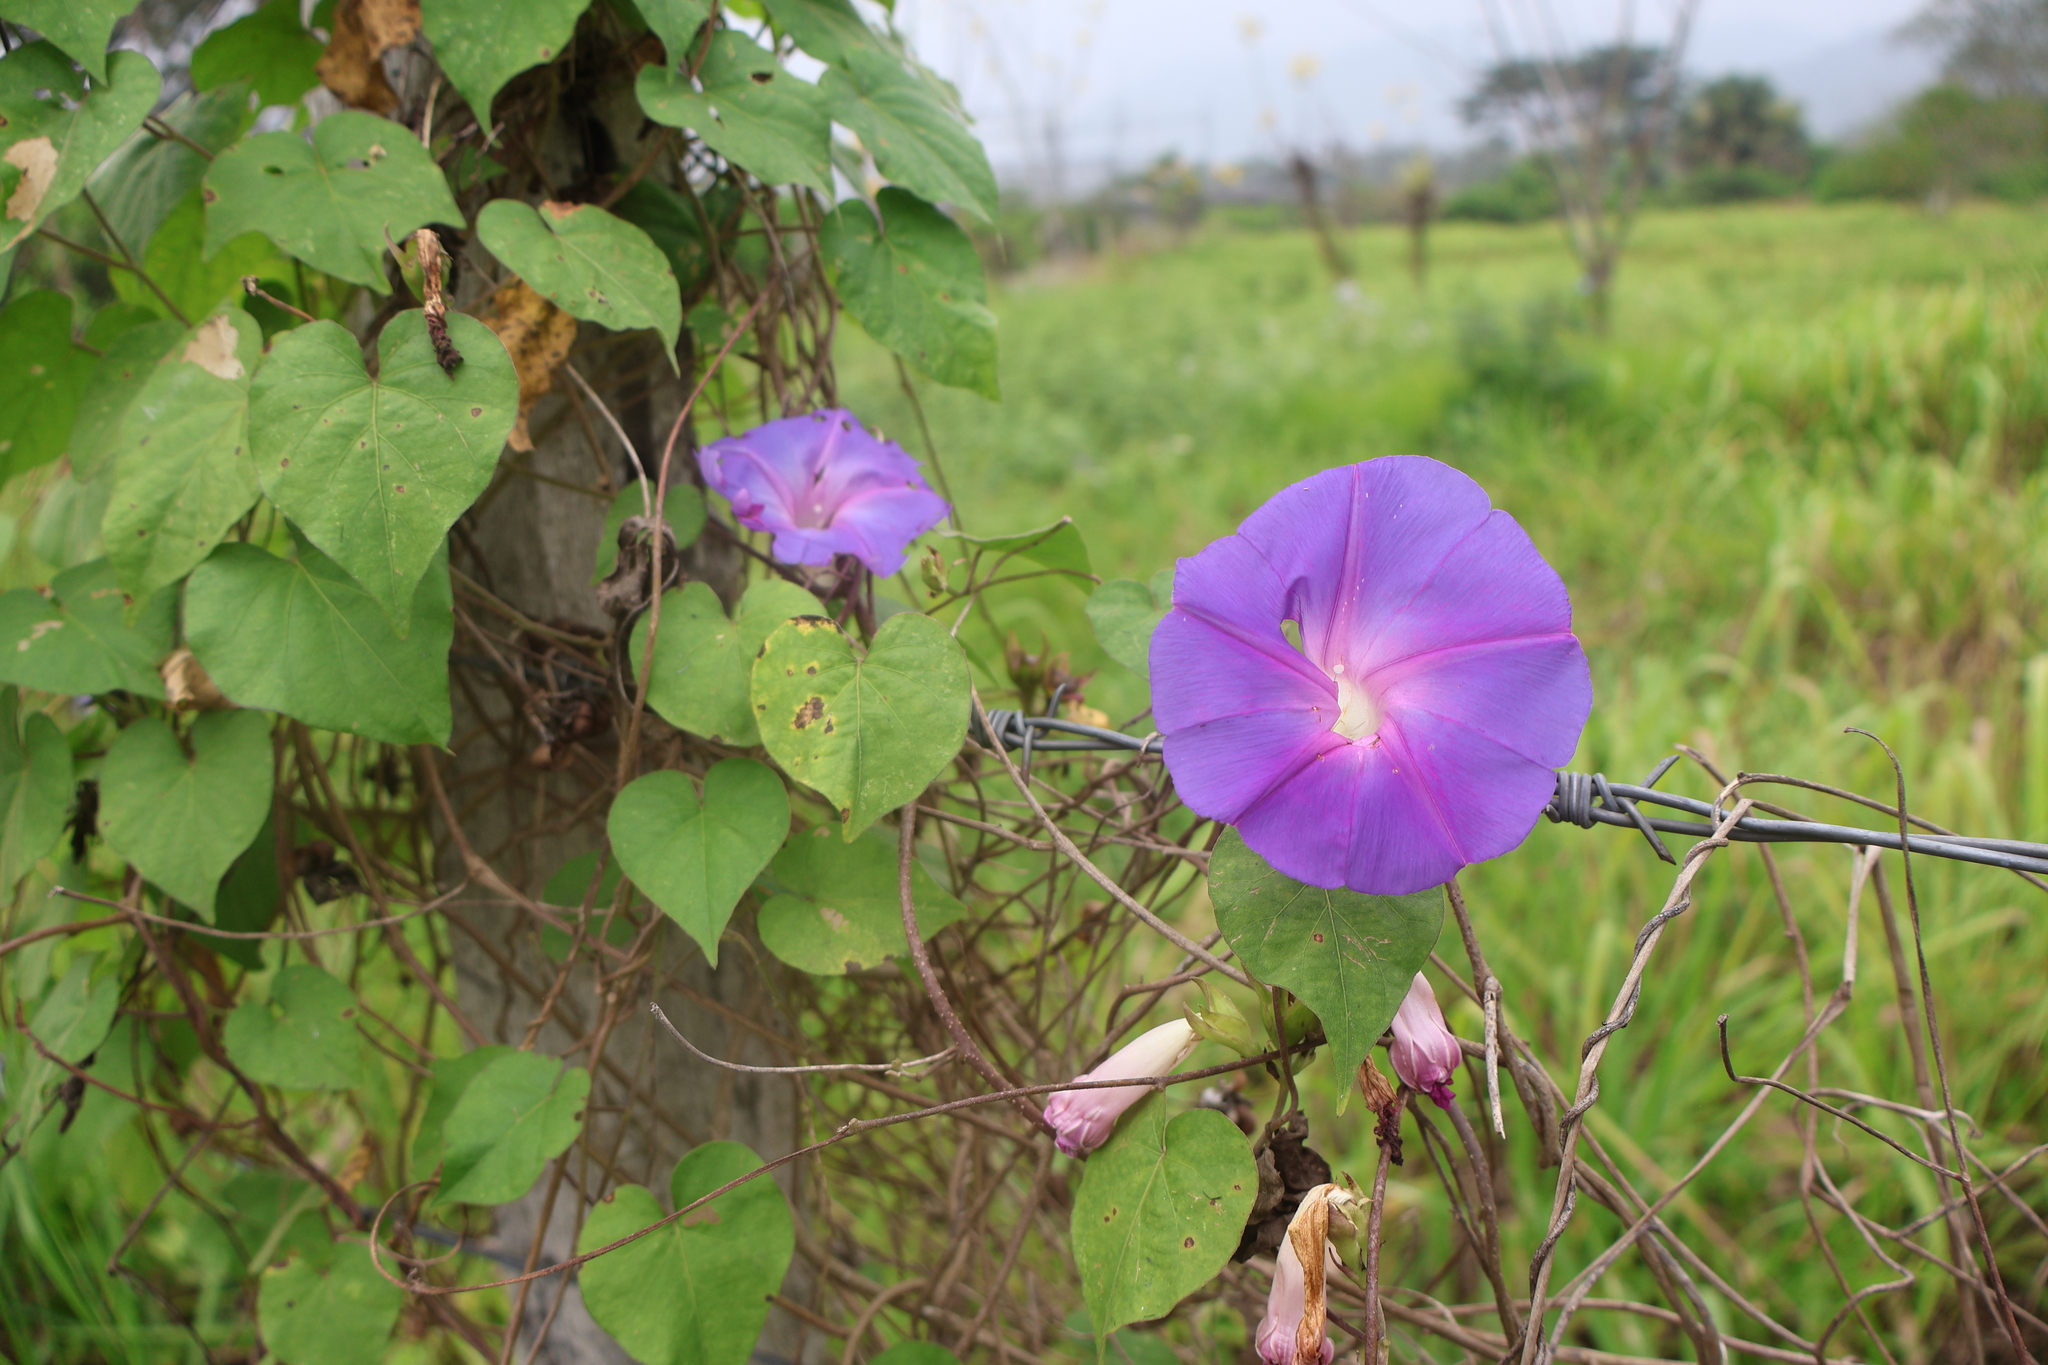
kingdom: Plantae
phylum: Tracheophyta
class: Magnoliopsida
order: Solanales
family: Convolvulaceae
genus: Ipomoea
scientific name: Ipomoea indica
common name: Blue dawnflower
